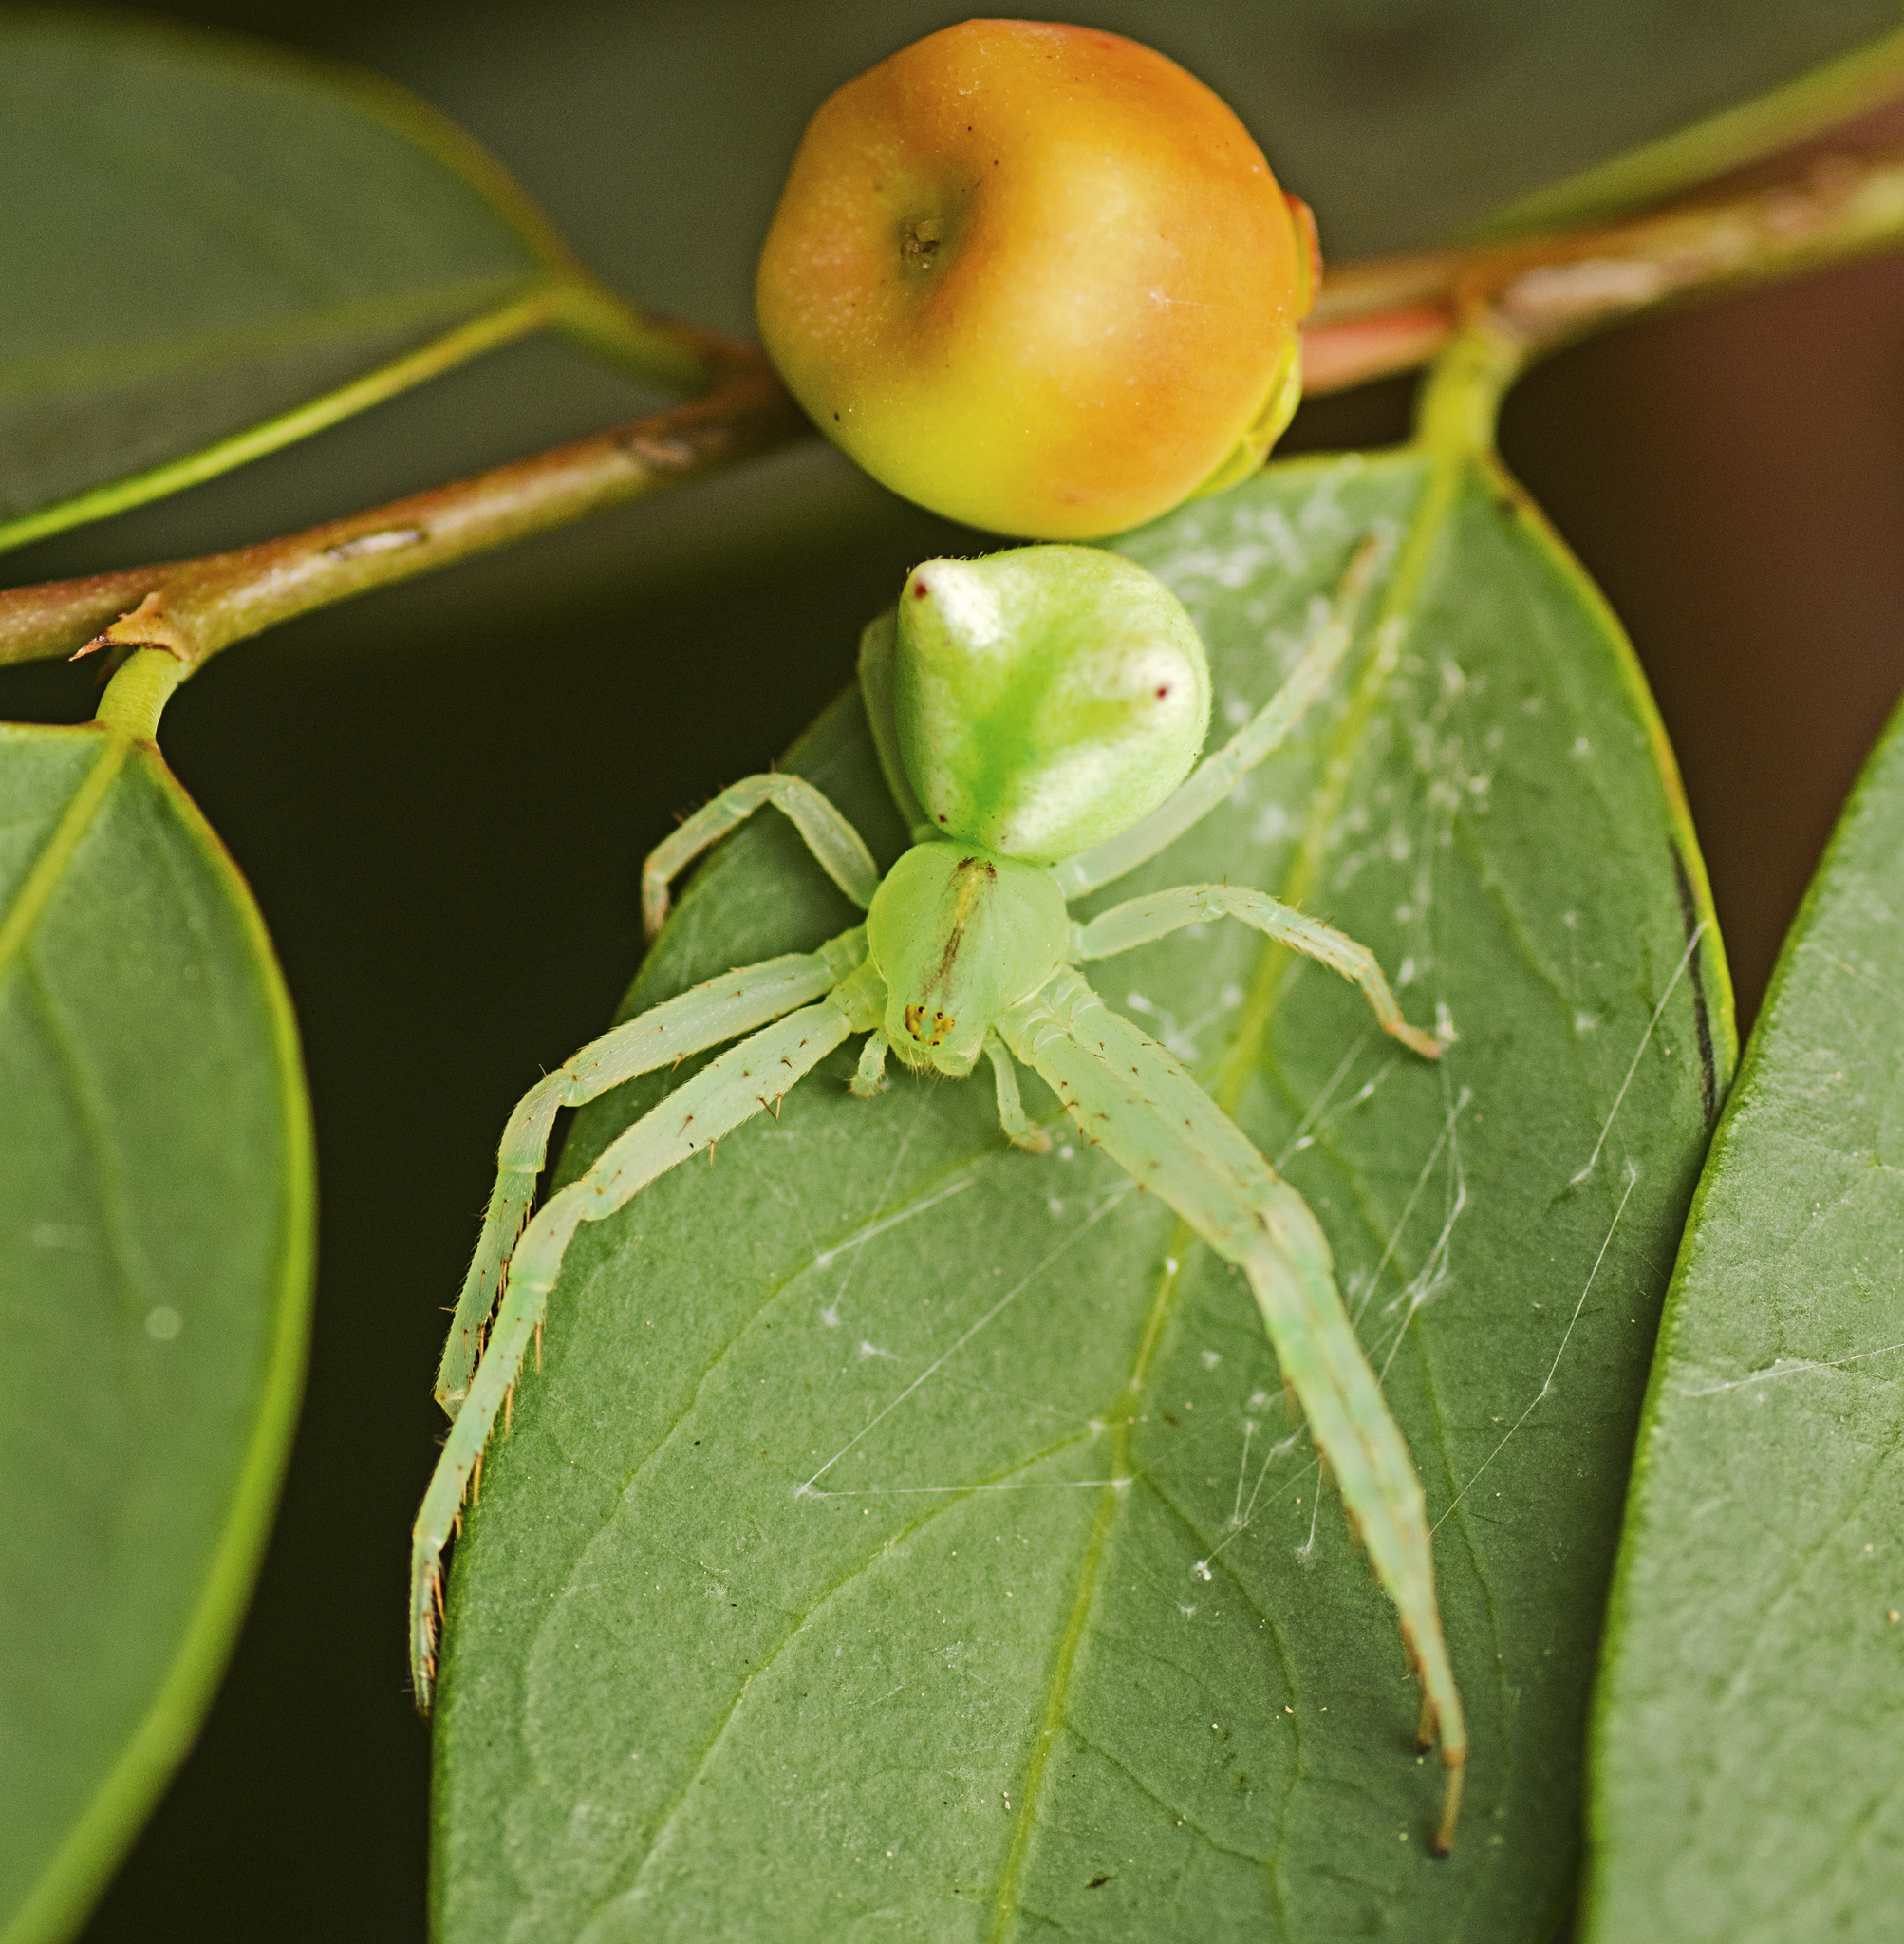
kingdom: Animalia
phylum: Arthropoda
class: Arachnida
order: Araneae
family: Thomisidae
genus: Sidymella
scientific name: Sidymella rubrosignata
